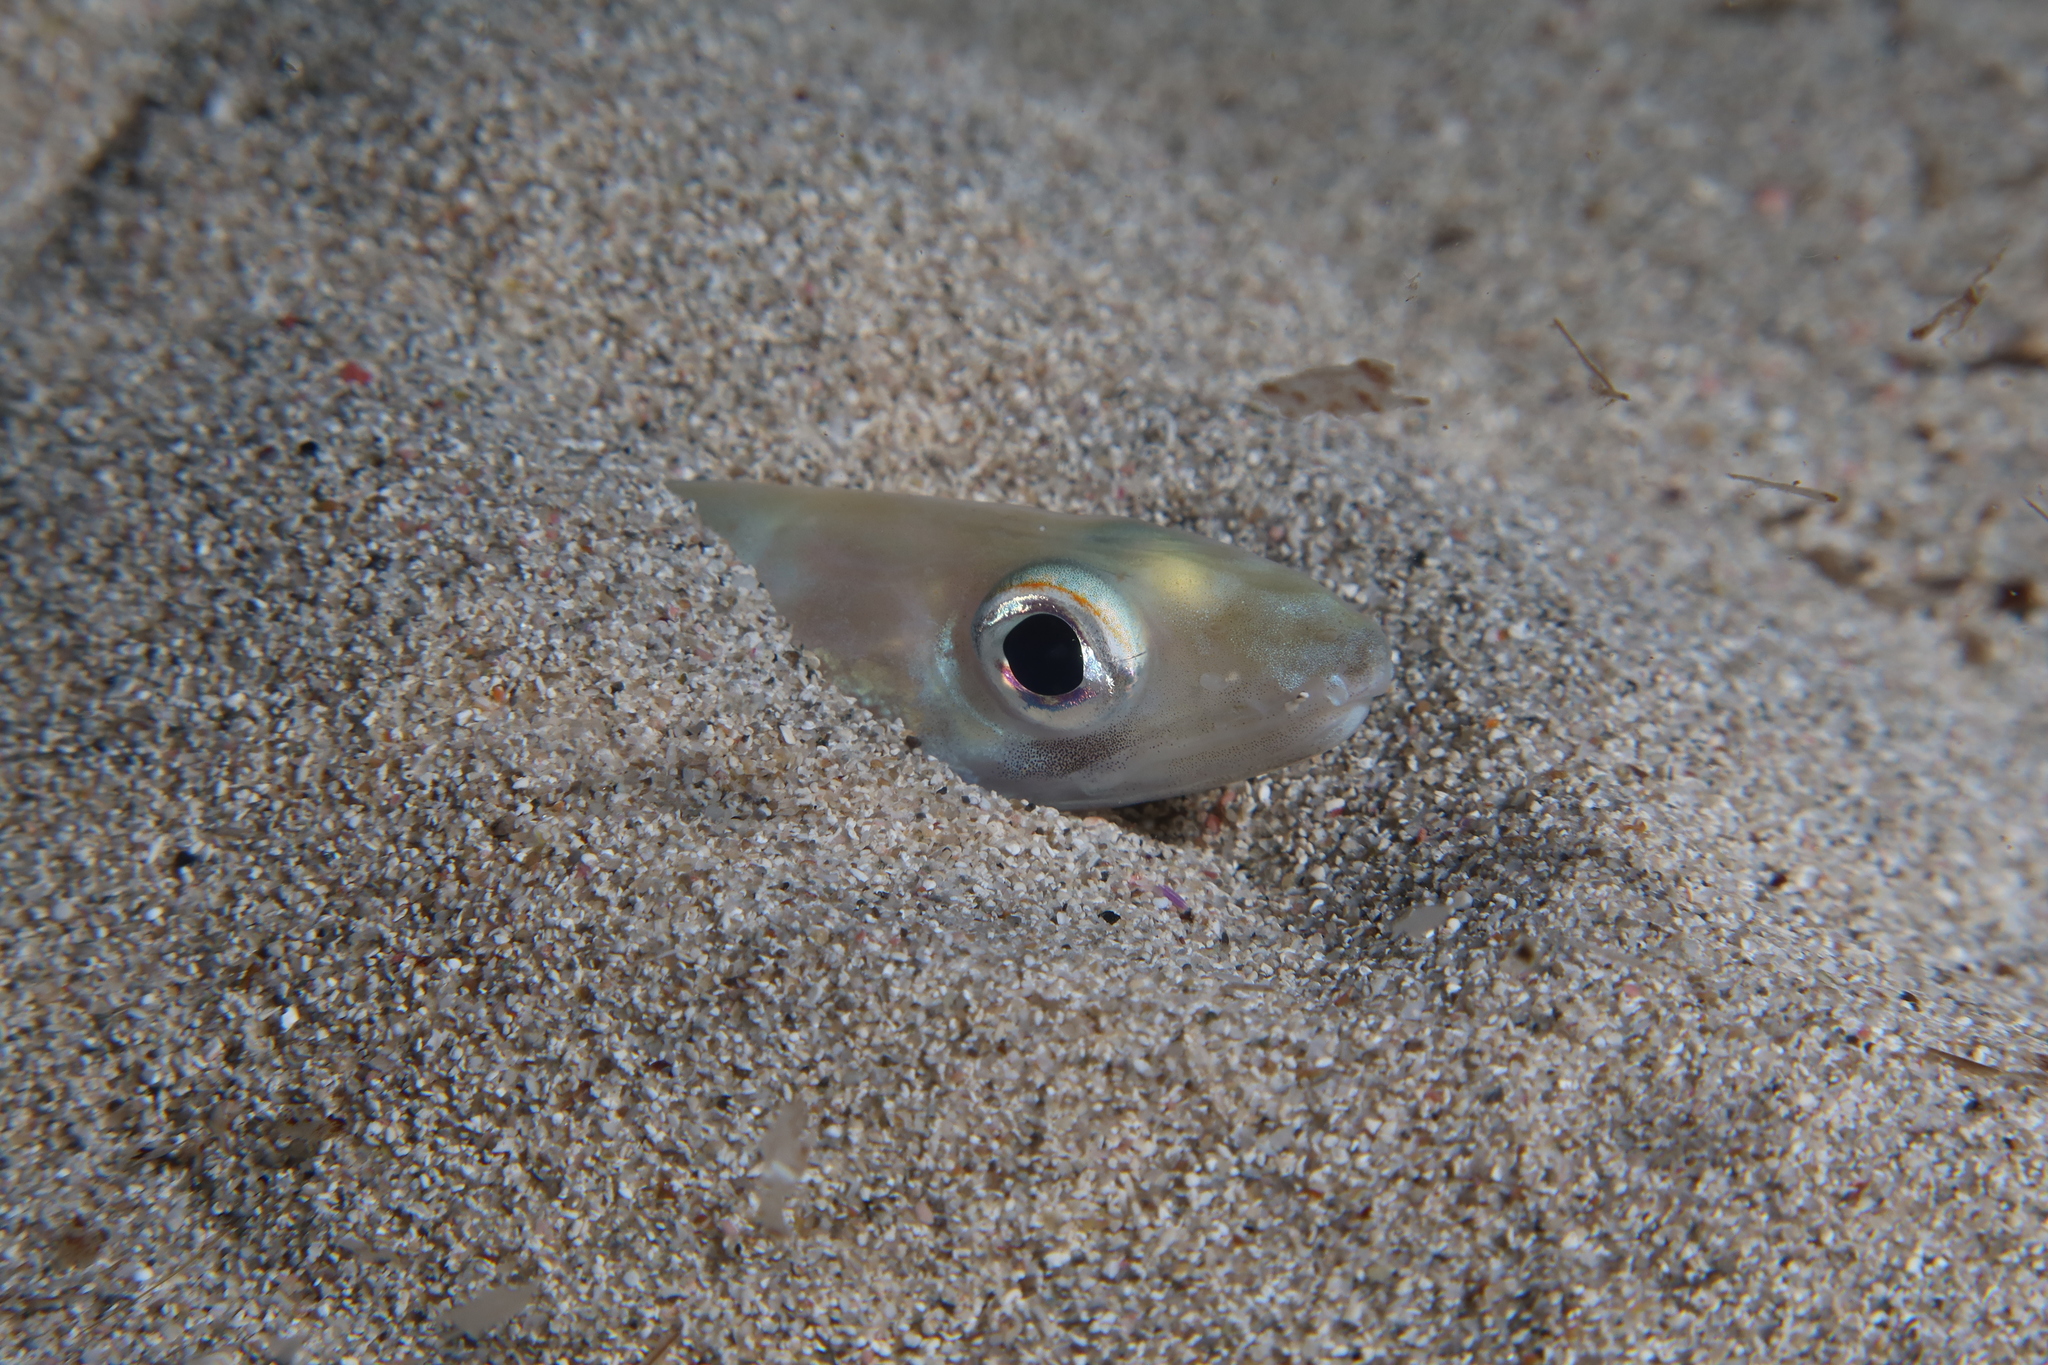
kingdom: Animalia
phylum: Chordata
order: Anguilliformes
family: Congridae
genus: Ariosoma
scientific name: Ariosoma balearicum
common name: Bandtooth conger
